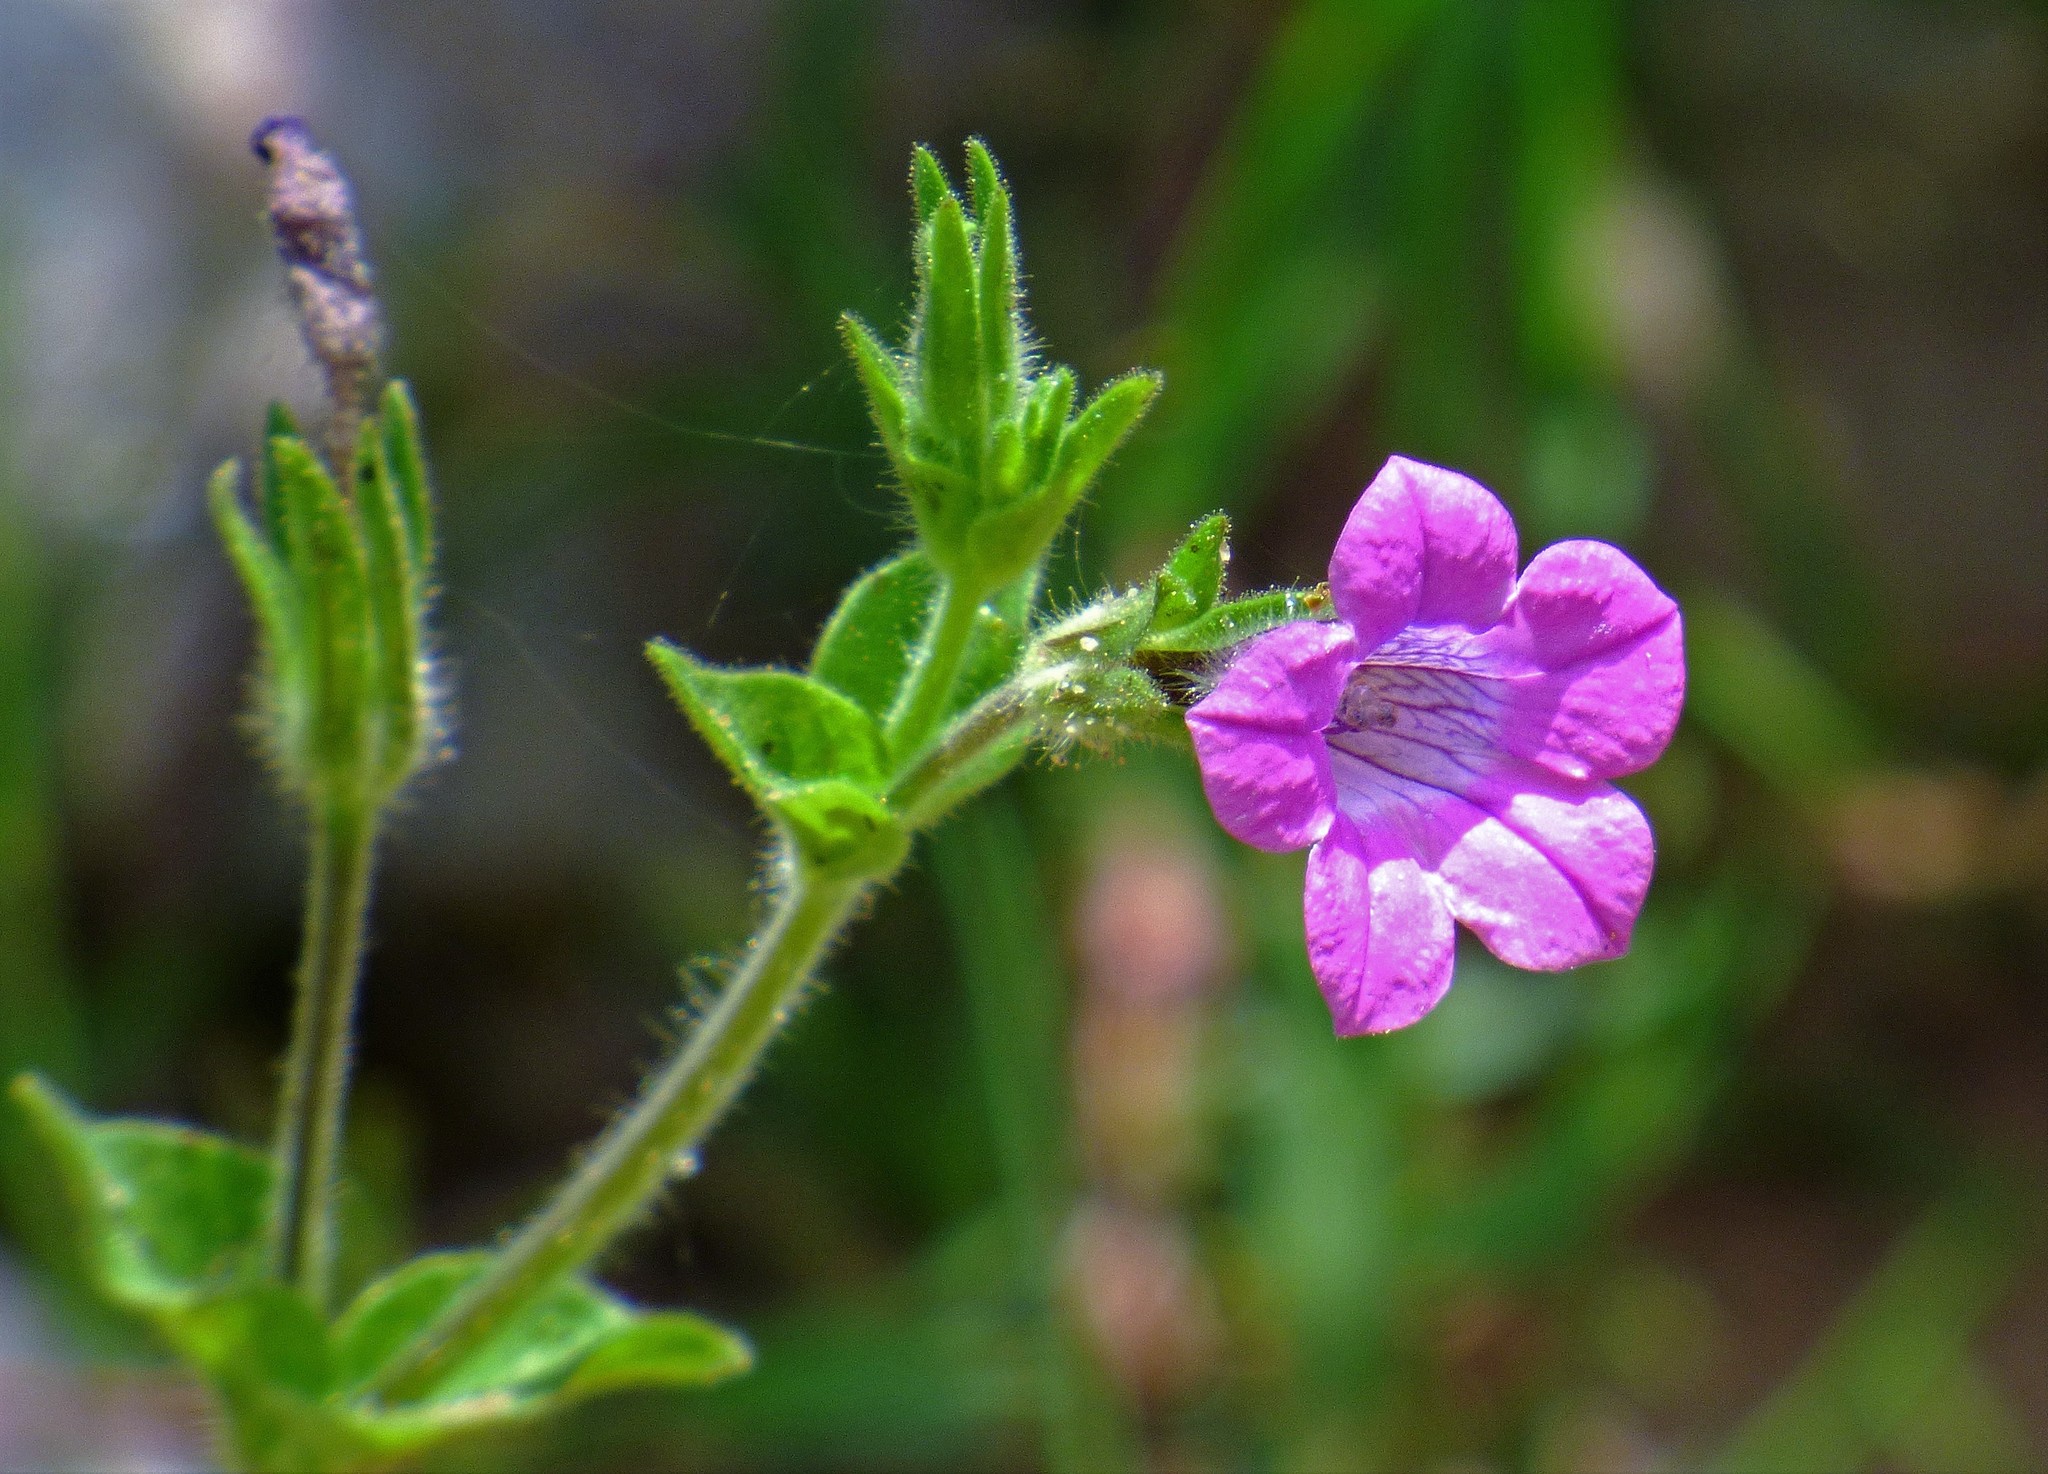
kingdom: Plantae
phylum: Tracheophyta
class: Magnoliopsida
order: Solanales
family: Solanaceae
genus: Petunia
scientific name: Petunia occidentalis
